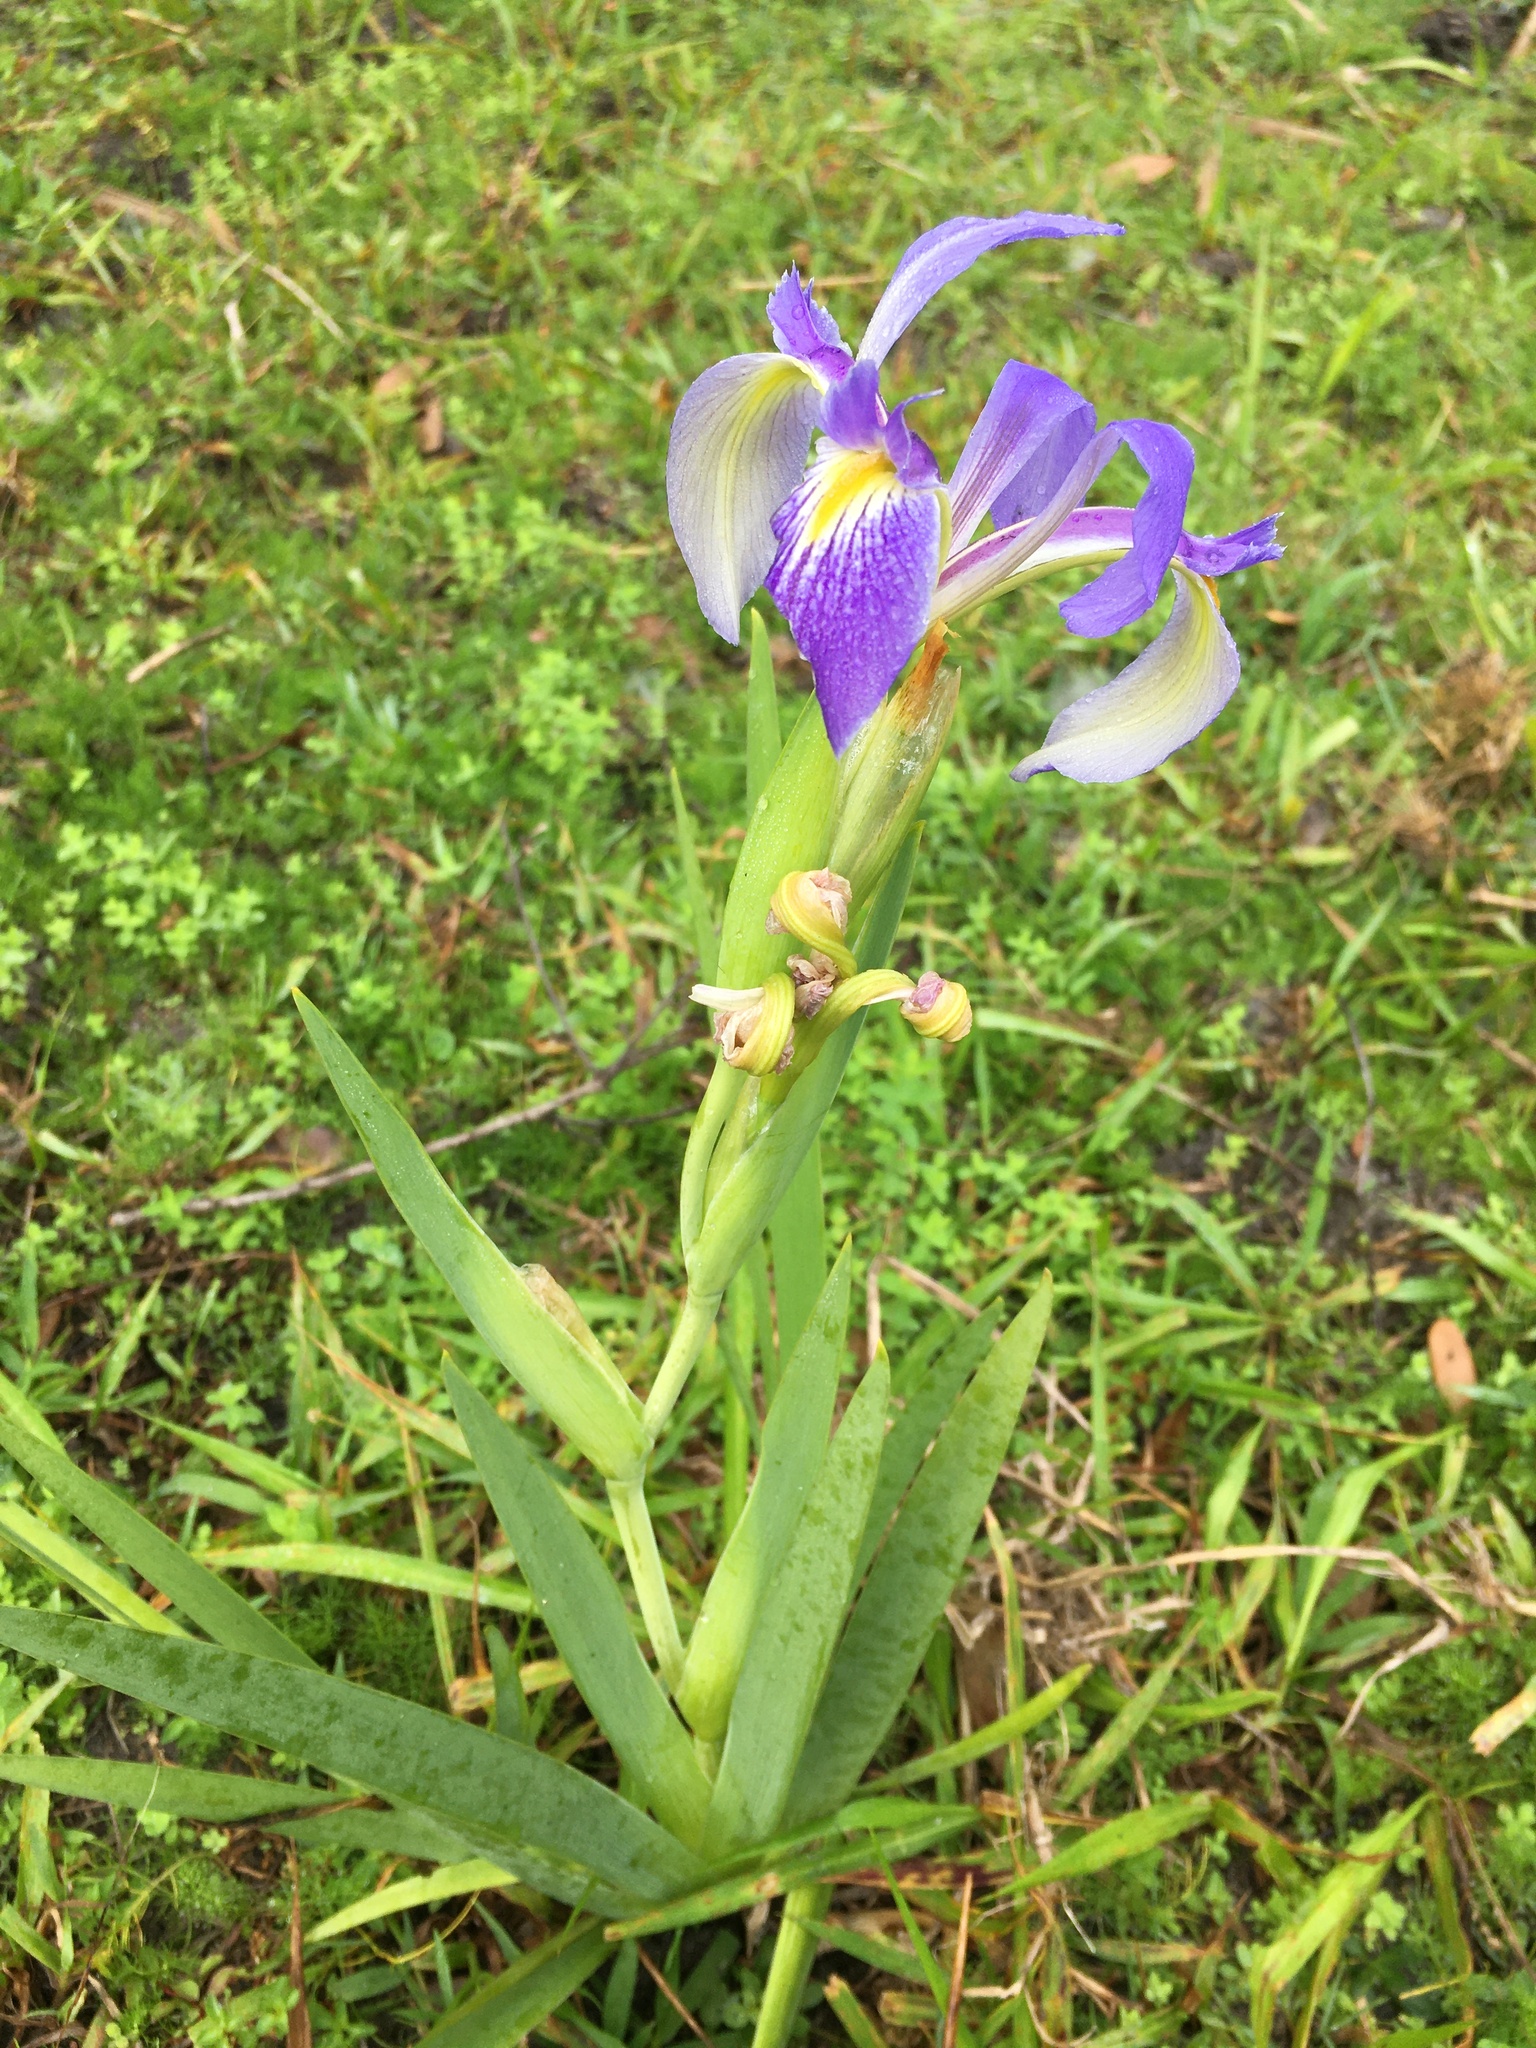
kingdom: Plantae
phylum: Tracheophyta
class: Liliopsida
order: Asparagales
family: Iridaceae
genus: Iris
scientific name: Iris savannarum
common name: Prairie iris
